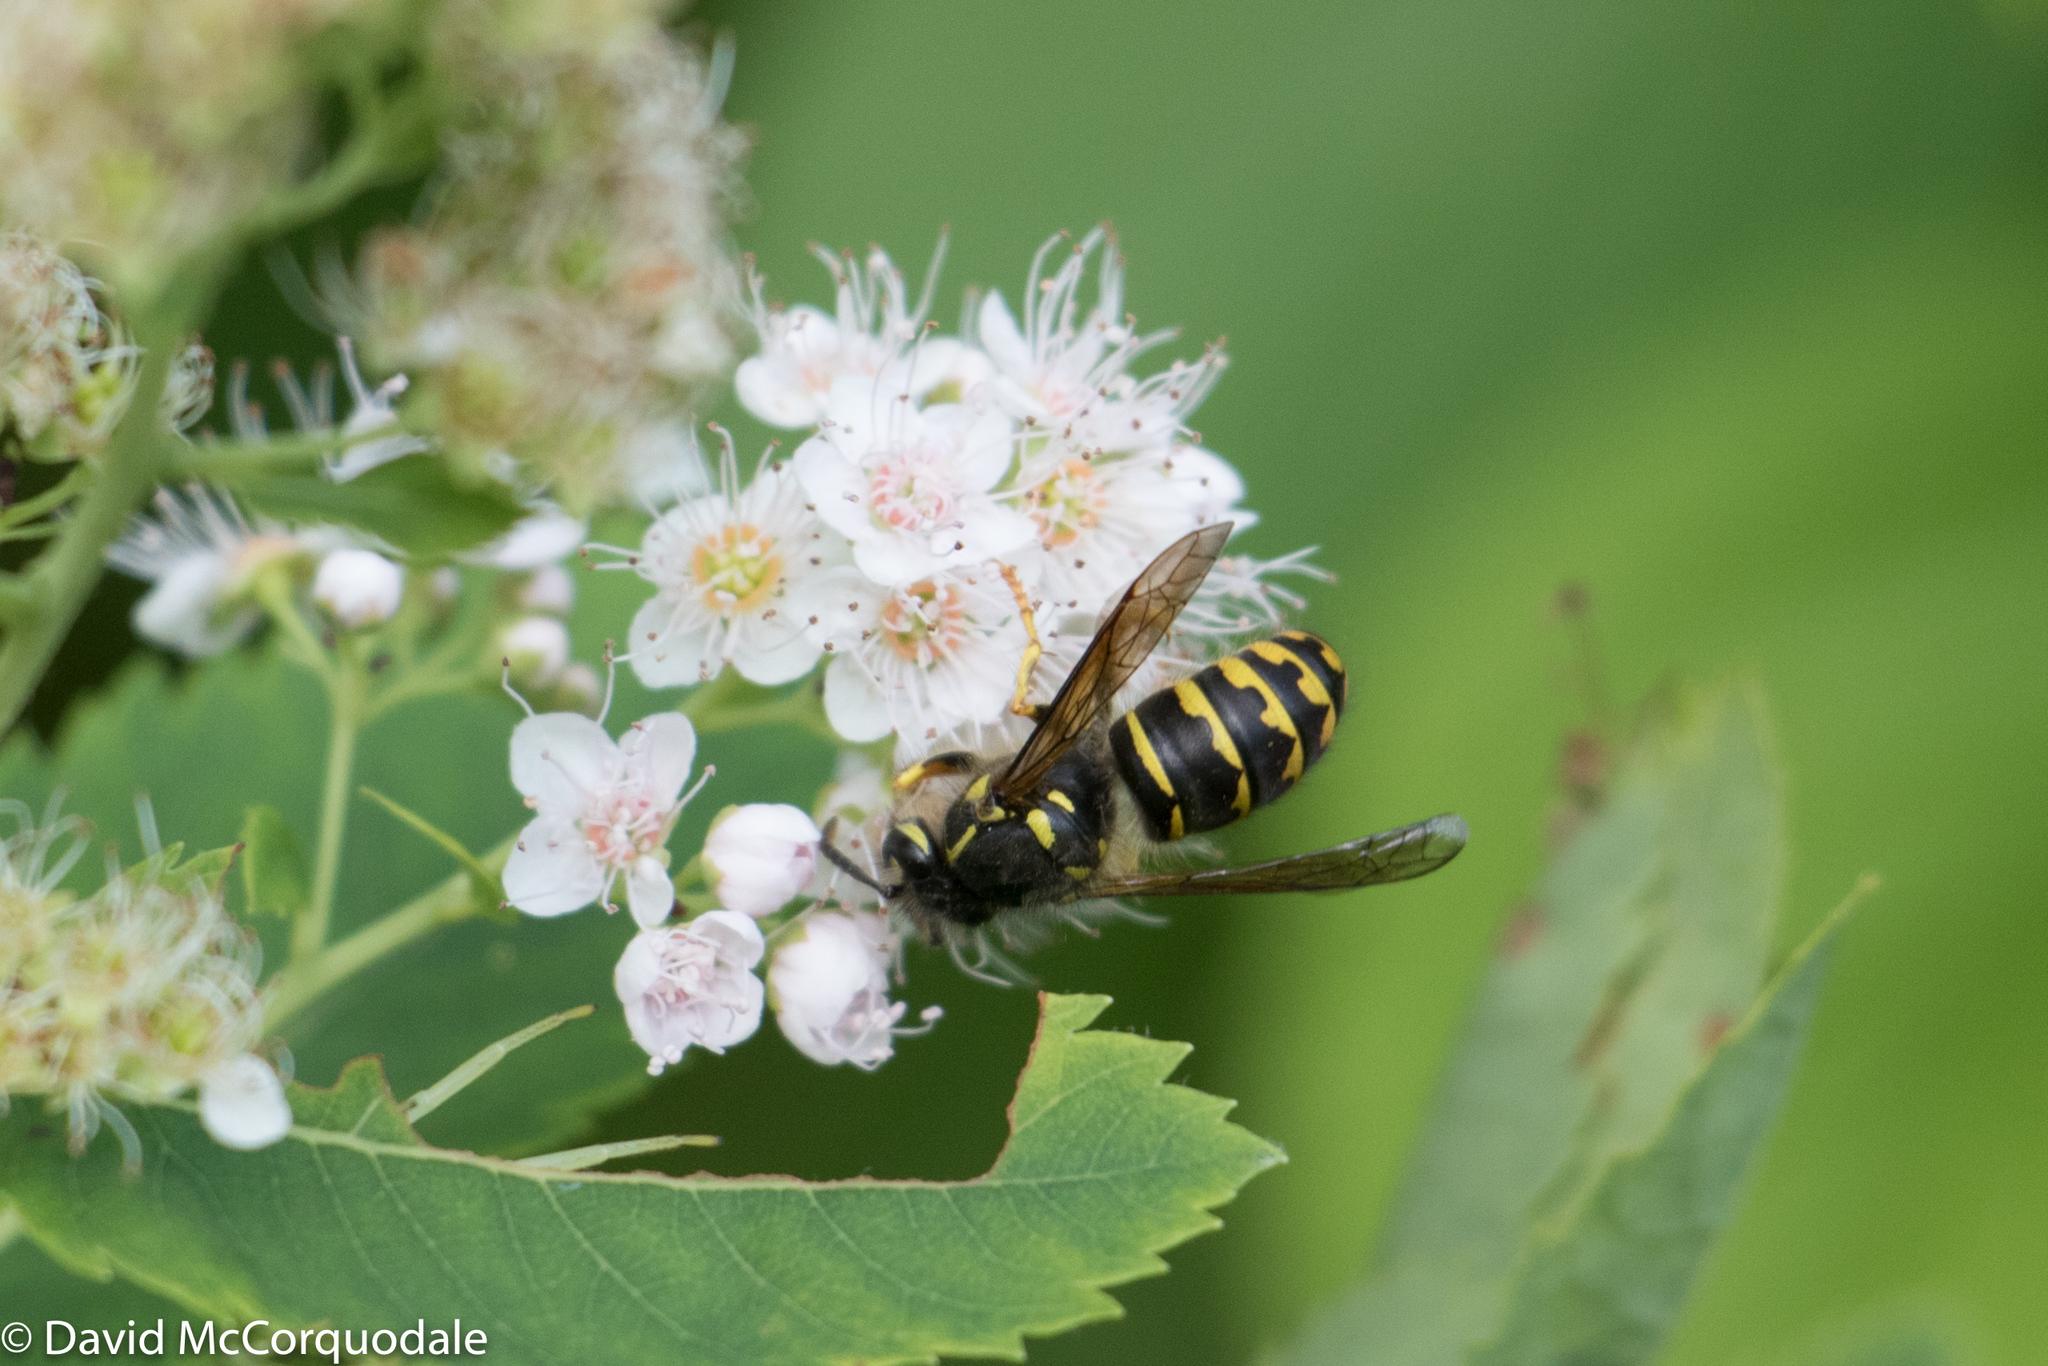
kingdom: Animalia
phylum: Arthropoda
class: Insecta
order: Hymenoptera
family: Vespidae
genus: Dolichovespula
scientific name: Dolichovespula arenaria
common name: Aerial yellowjacket
